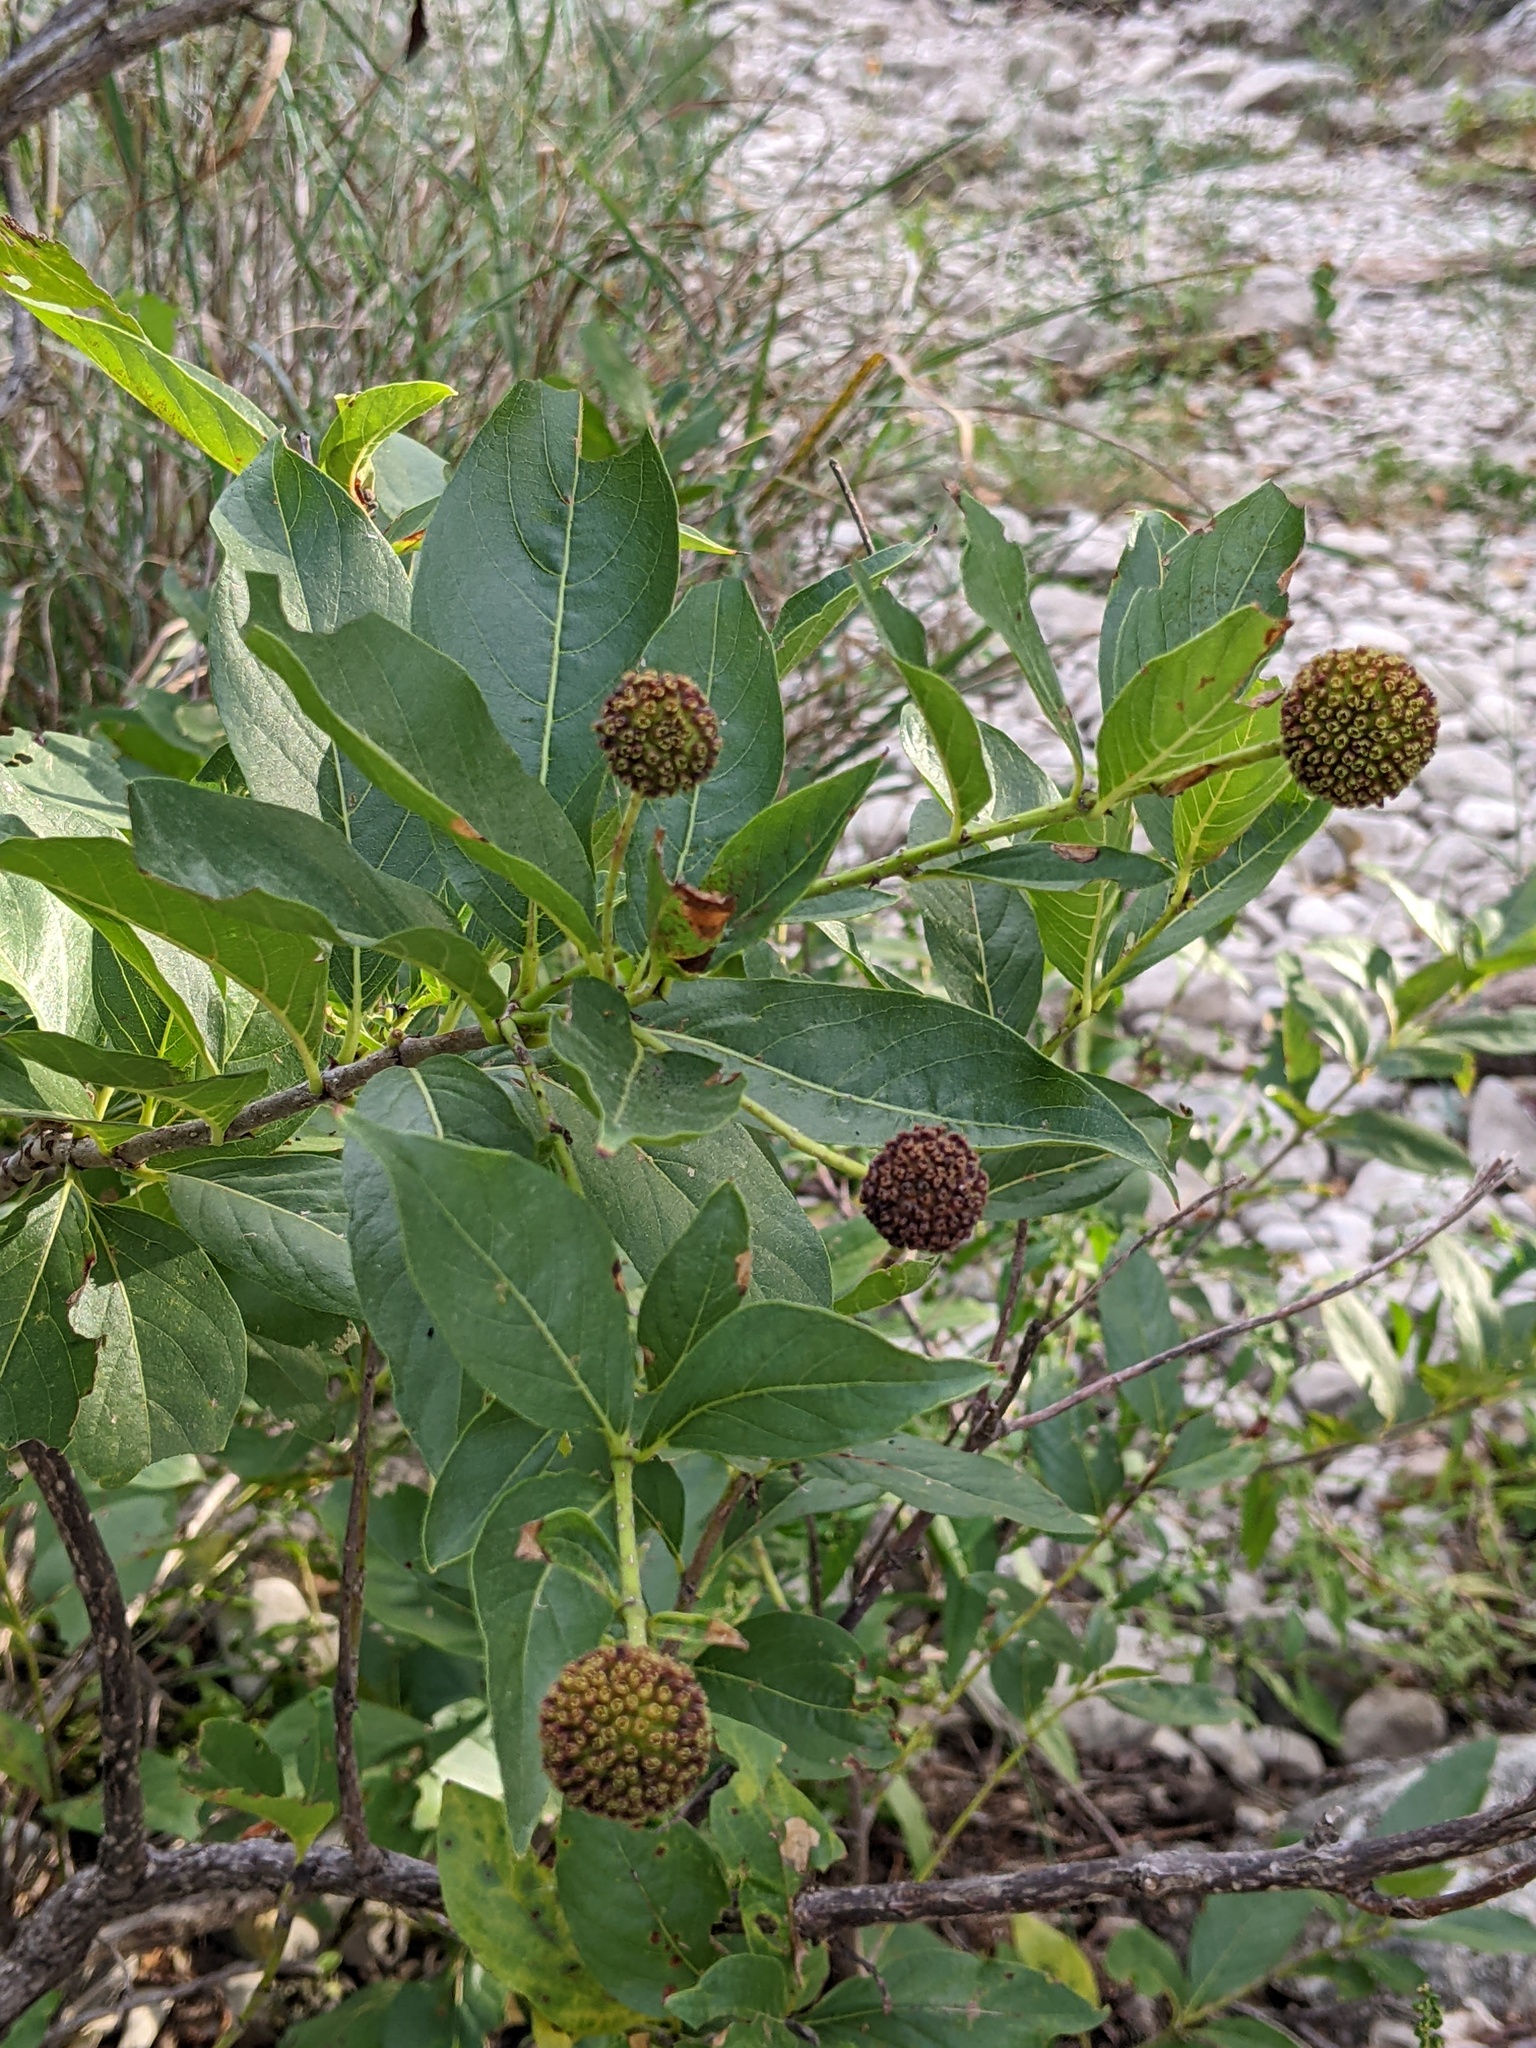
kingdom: Plantae
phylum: Tracheophyta
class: Magnoliopsida
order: Gentianales
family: Rubiaceae
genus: Cephalanthus
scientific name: Cephalanthus occidentalis
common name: Button-willow
